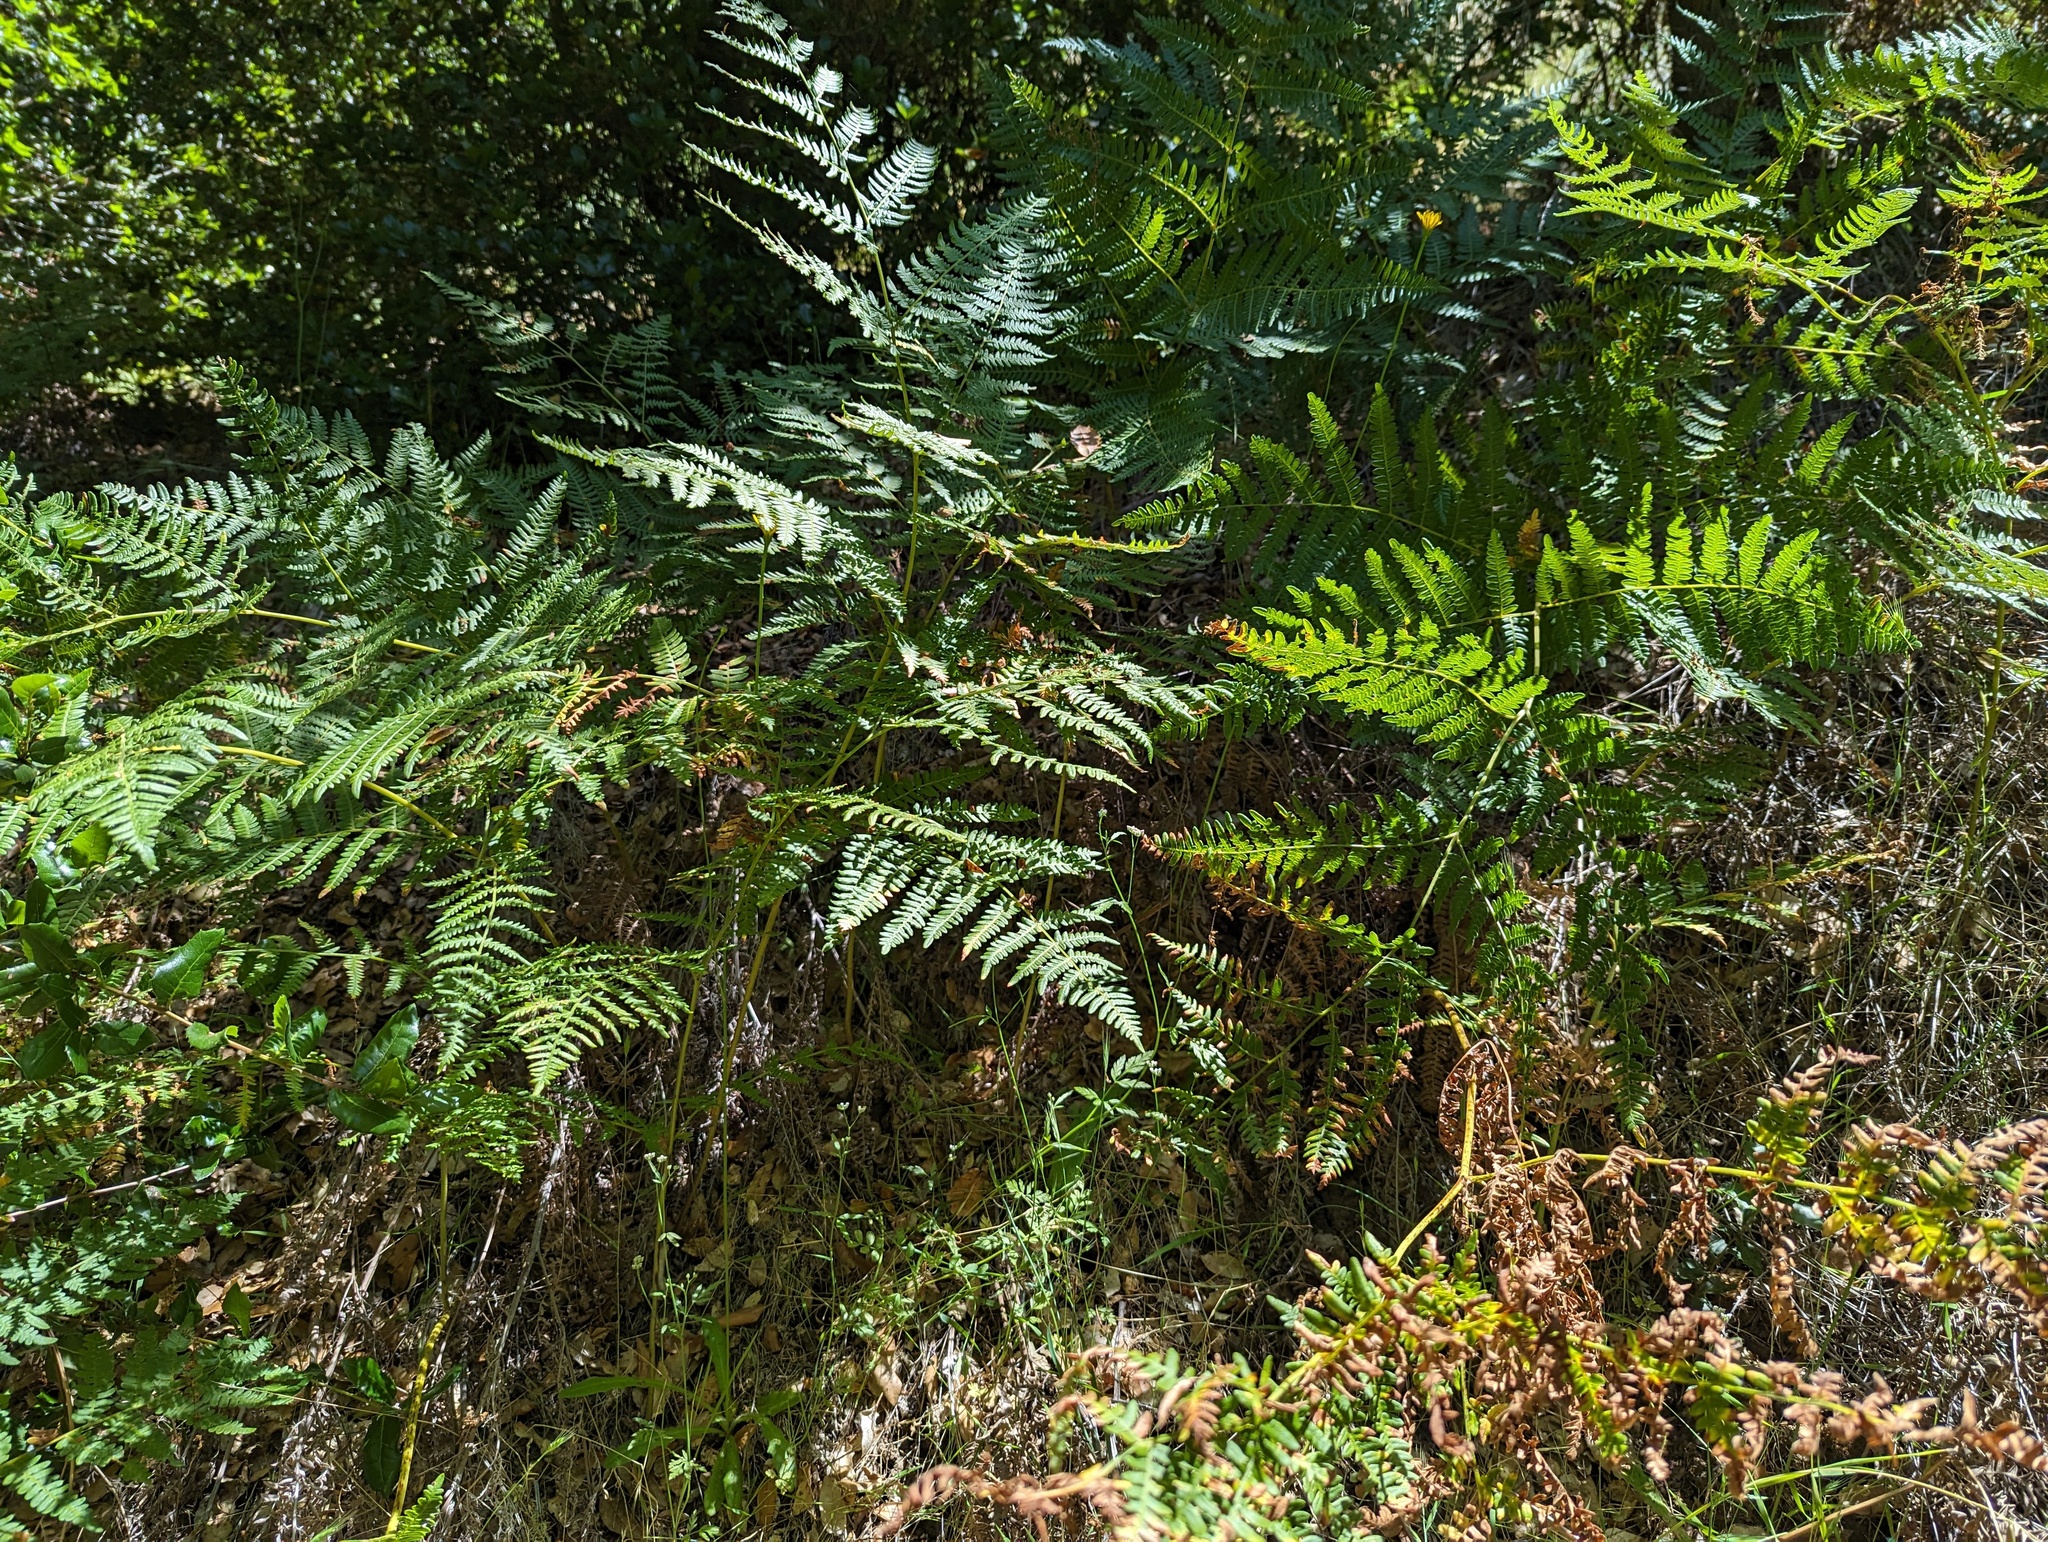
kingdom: Plantae
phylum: Tracheophyta
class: Polypodiopsida
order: Polypodiales
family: Dennstaedtiaceae
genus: Pteridium
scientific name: Pteridium aquilinum
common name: Bracken
